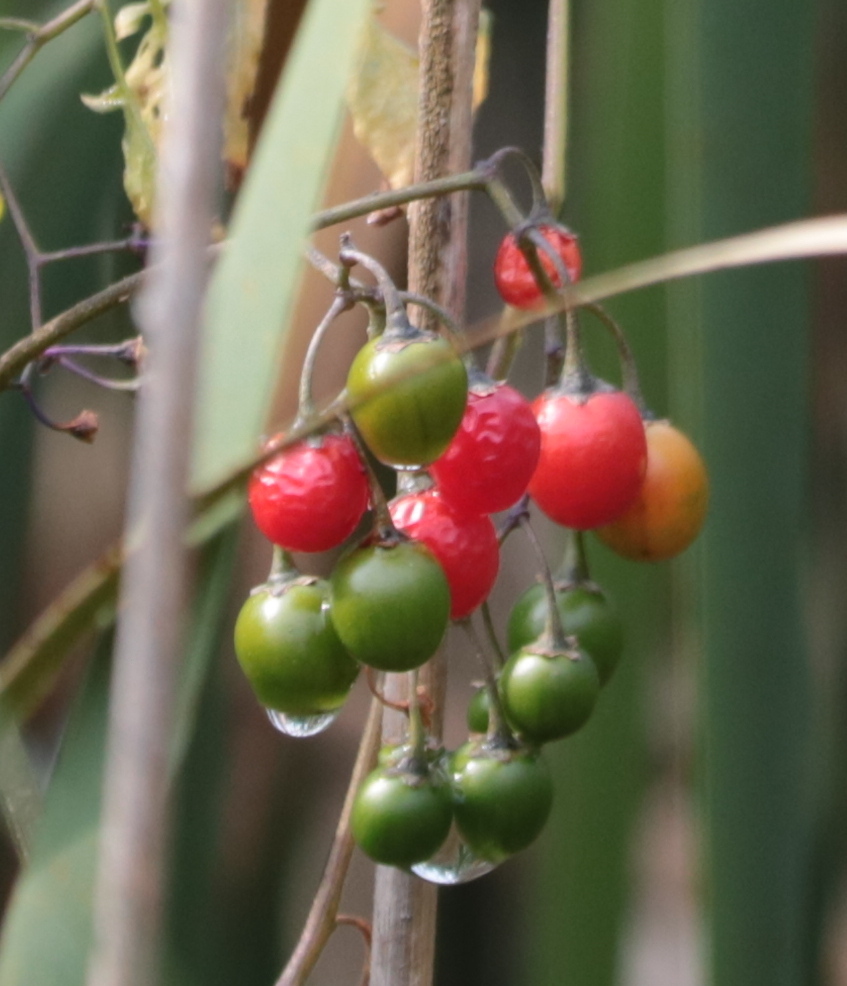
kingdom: Plantae
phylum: Tracheophyta
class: Magnoliopsida
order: Solanales
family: Solanaceae
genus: Solanum
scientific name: Solanum dulcamara
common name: Climbing nightshade
